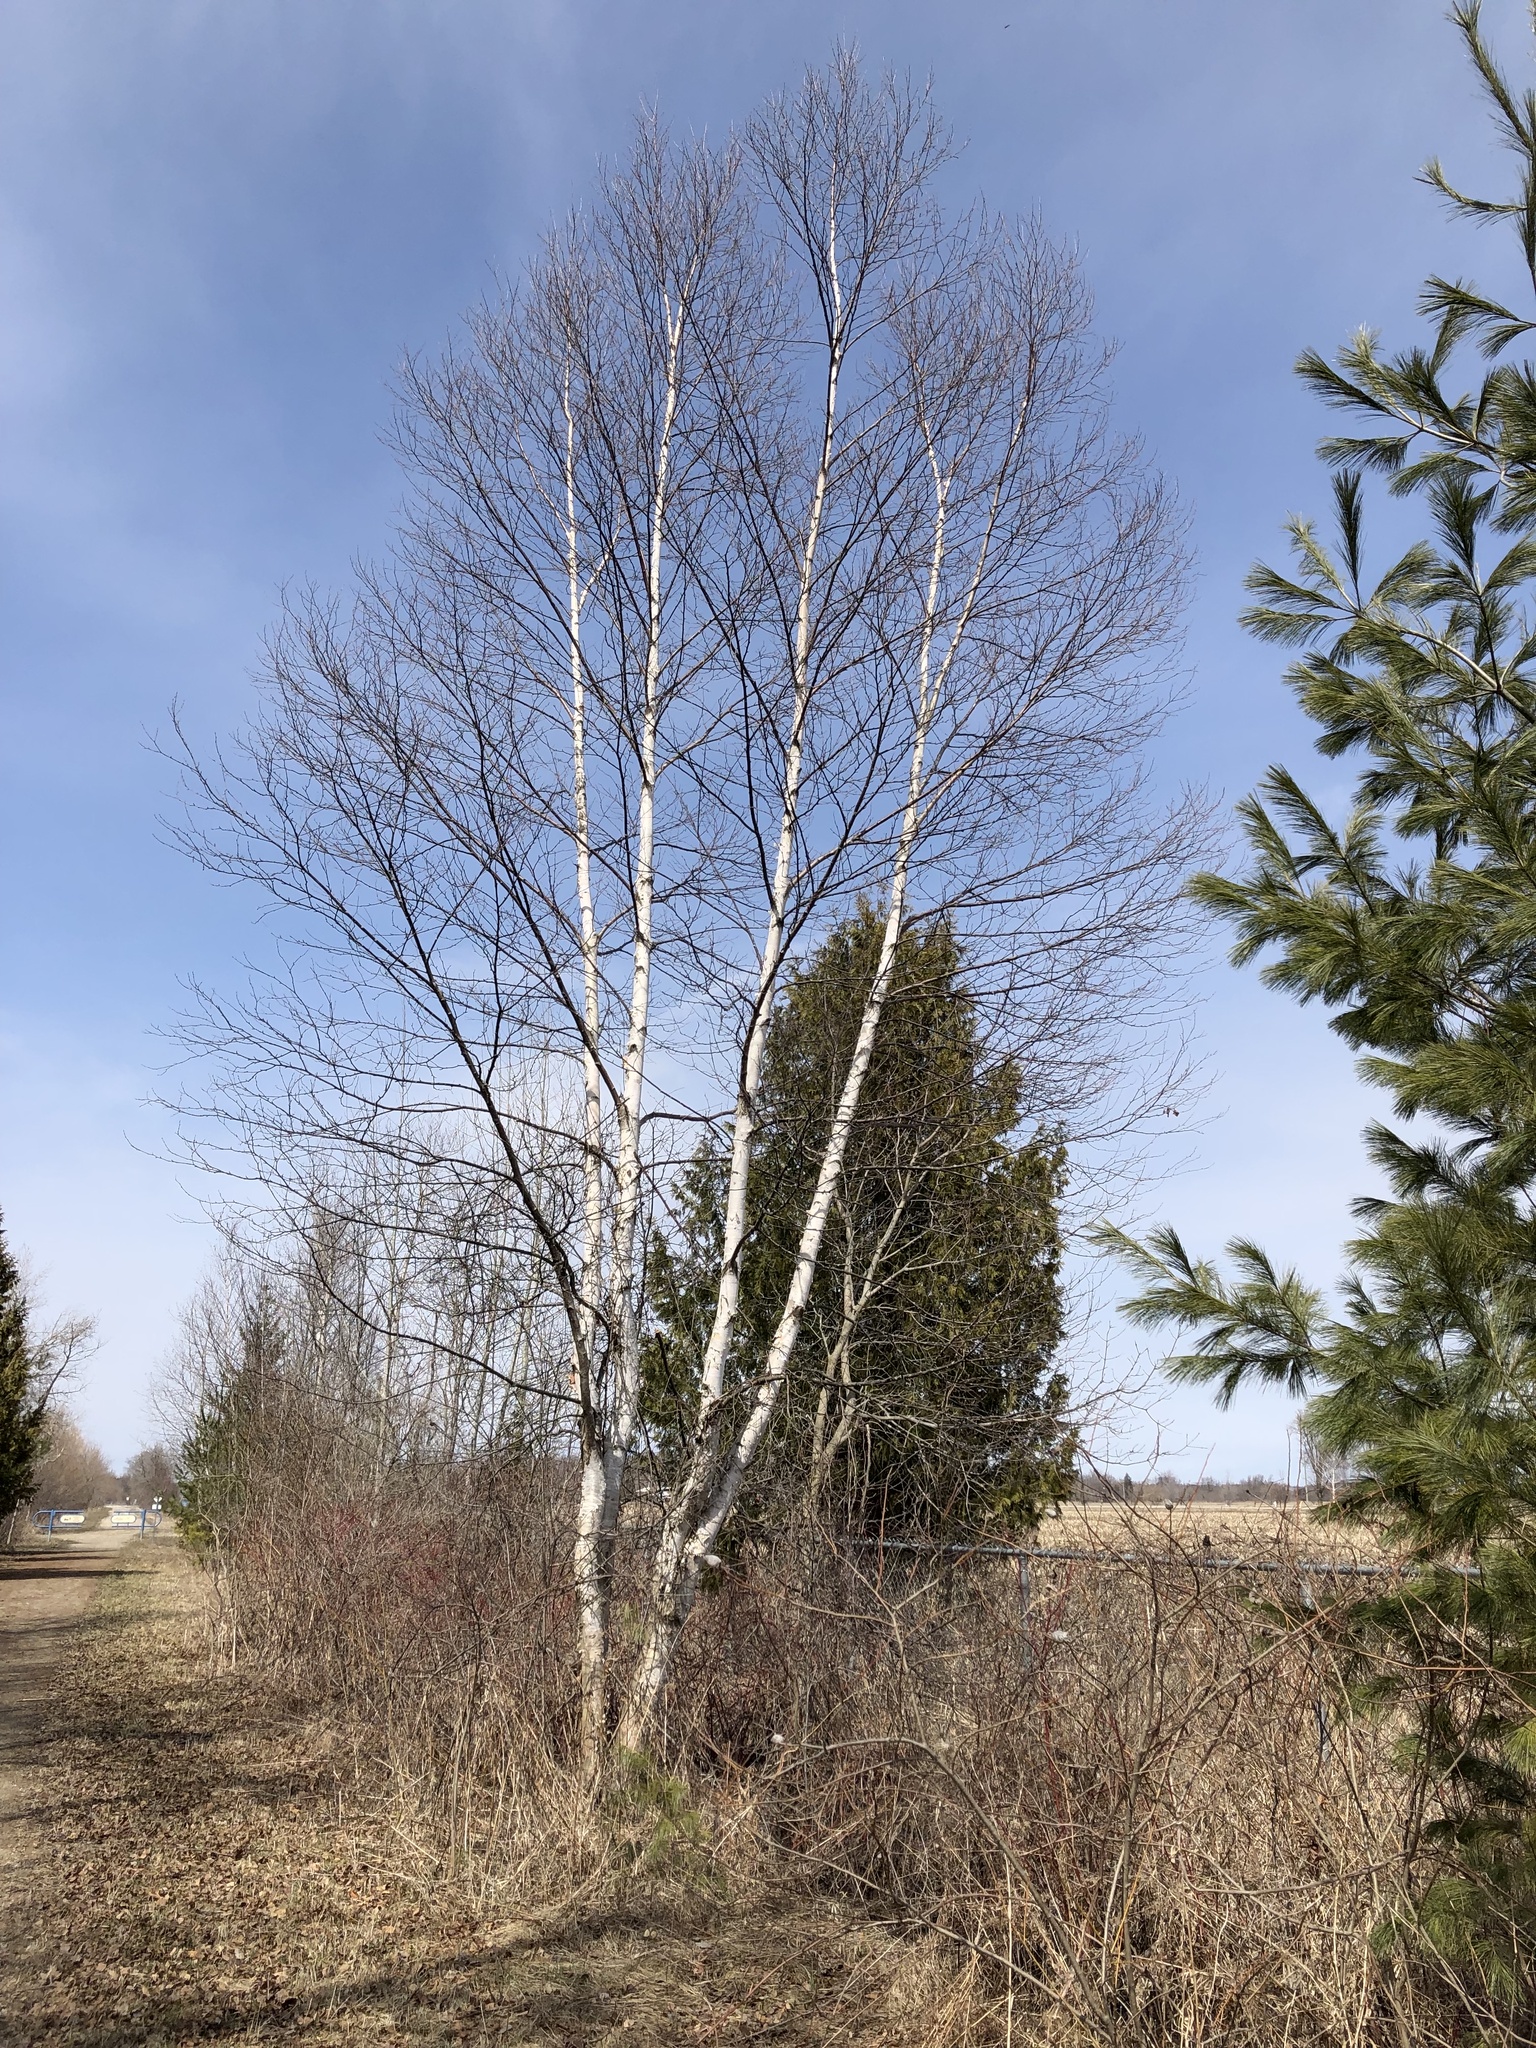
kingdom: Plantae
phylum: Tracheophyta
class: Magnoliopsida
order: Fagales
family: Betulaceae
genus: Betula
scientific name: Betula papyrifera
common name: Paper birch
